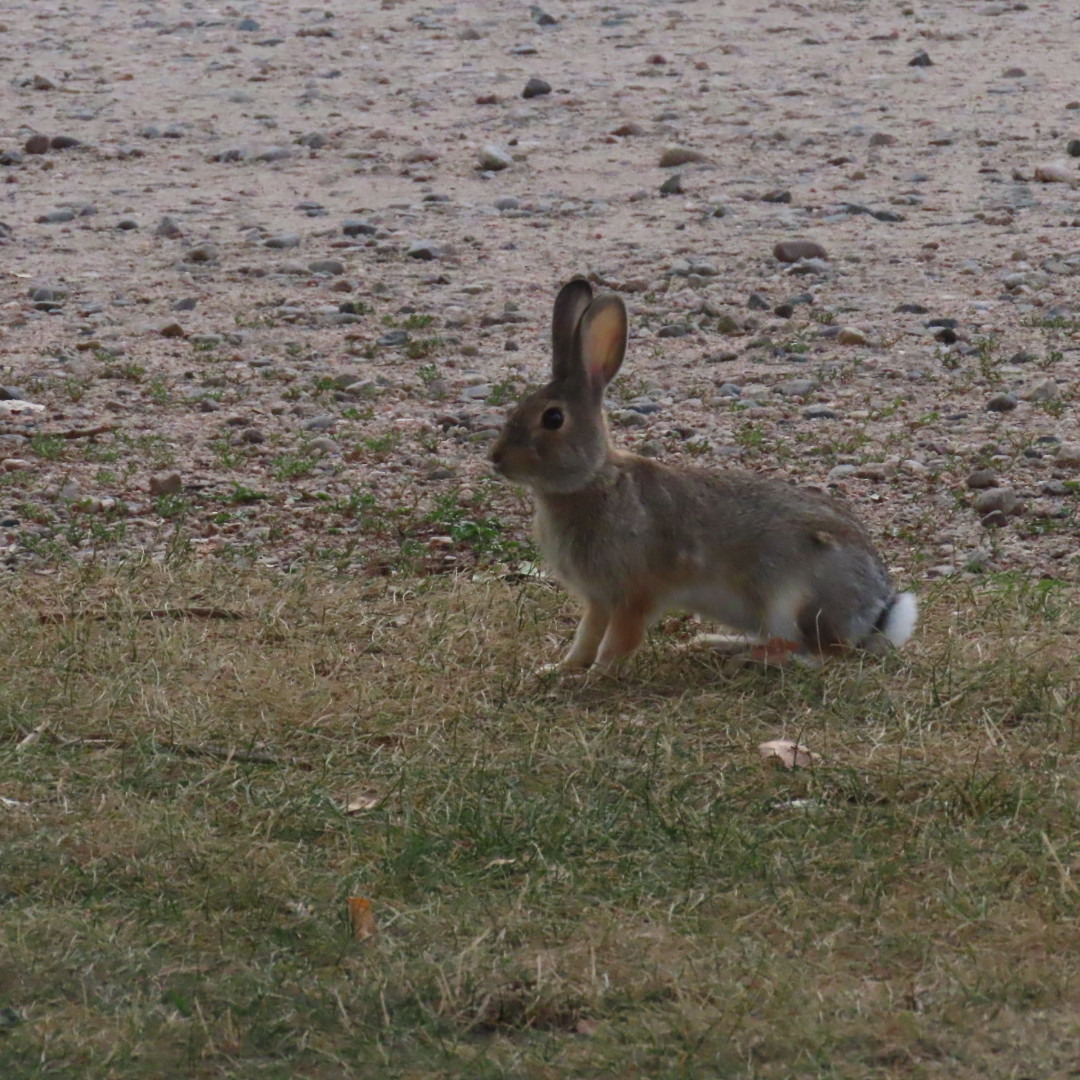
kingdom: Animalia
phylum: Chordata
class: Mammalia
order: Lagomorpha
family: Leporidae
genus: Sylvilagus
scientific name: Sylvilagus audubonii
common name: Desert cottontail
